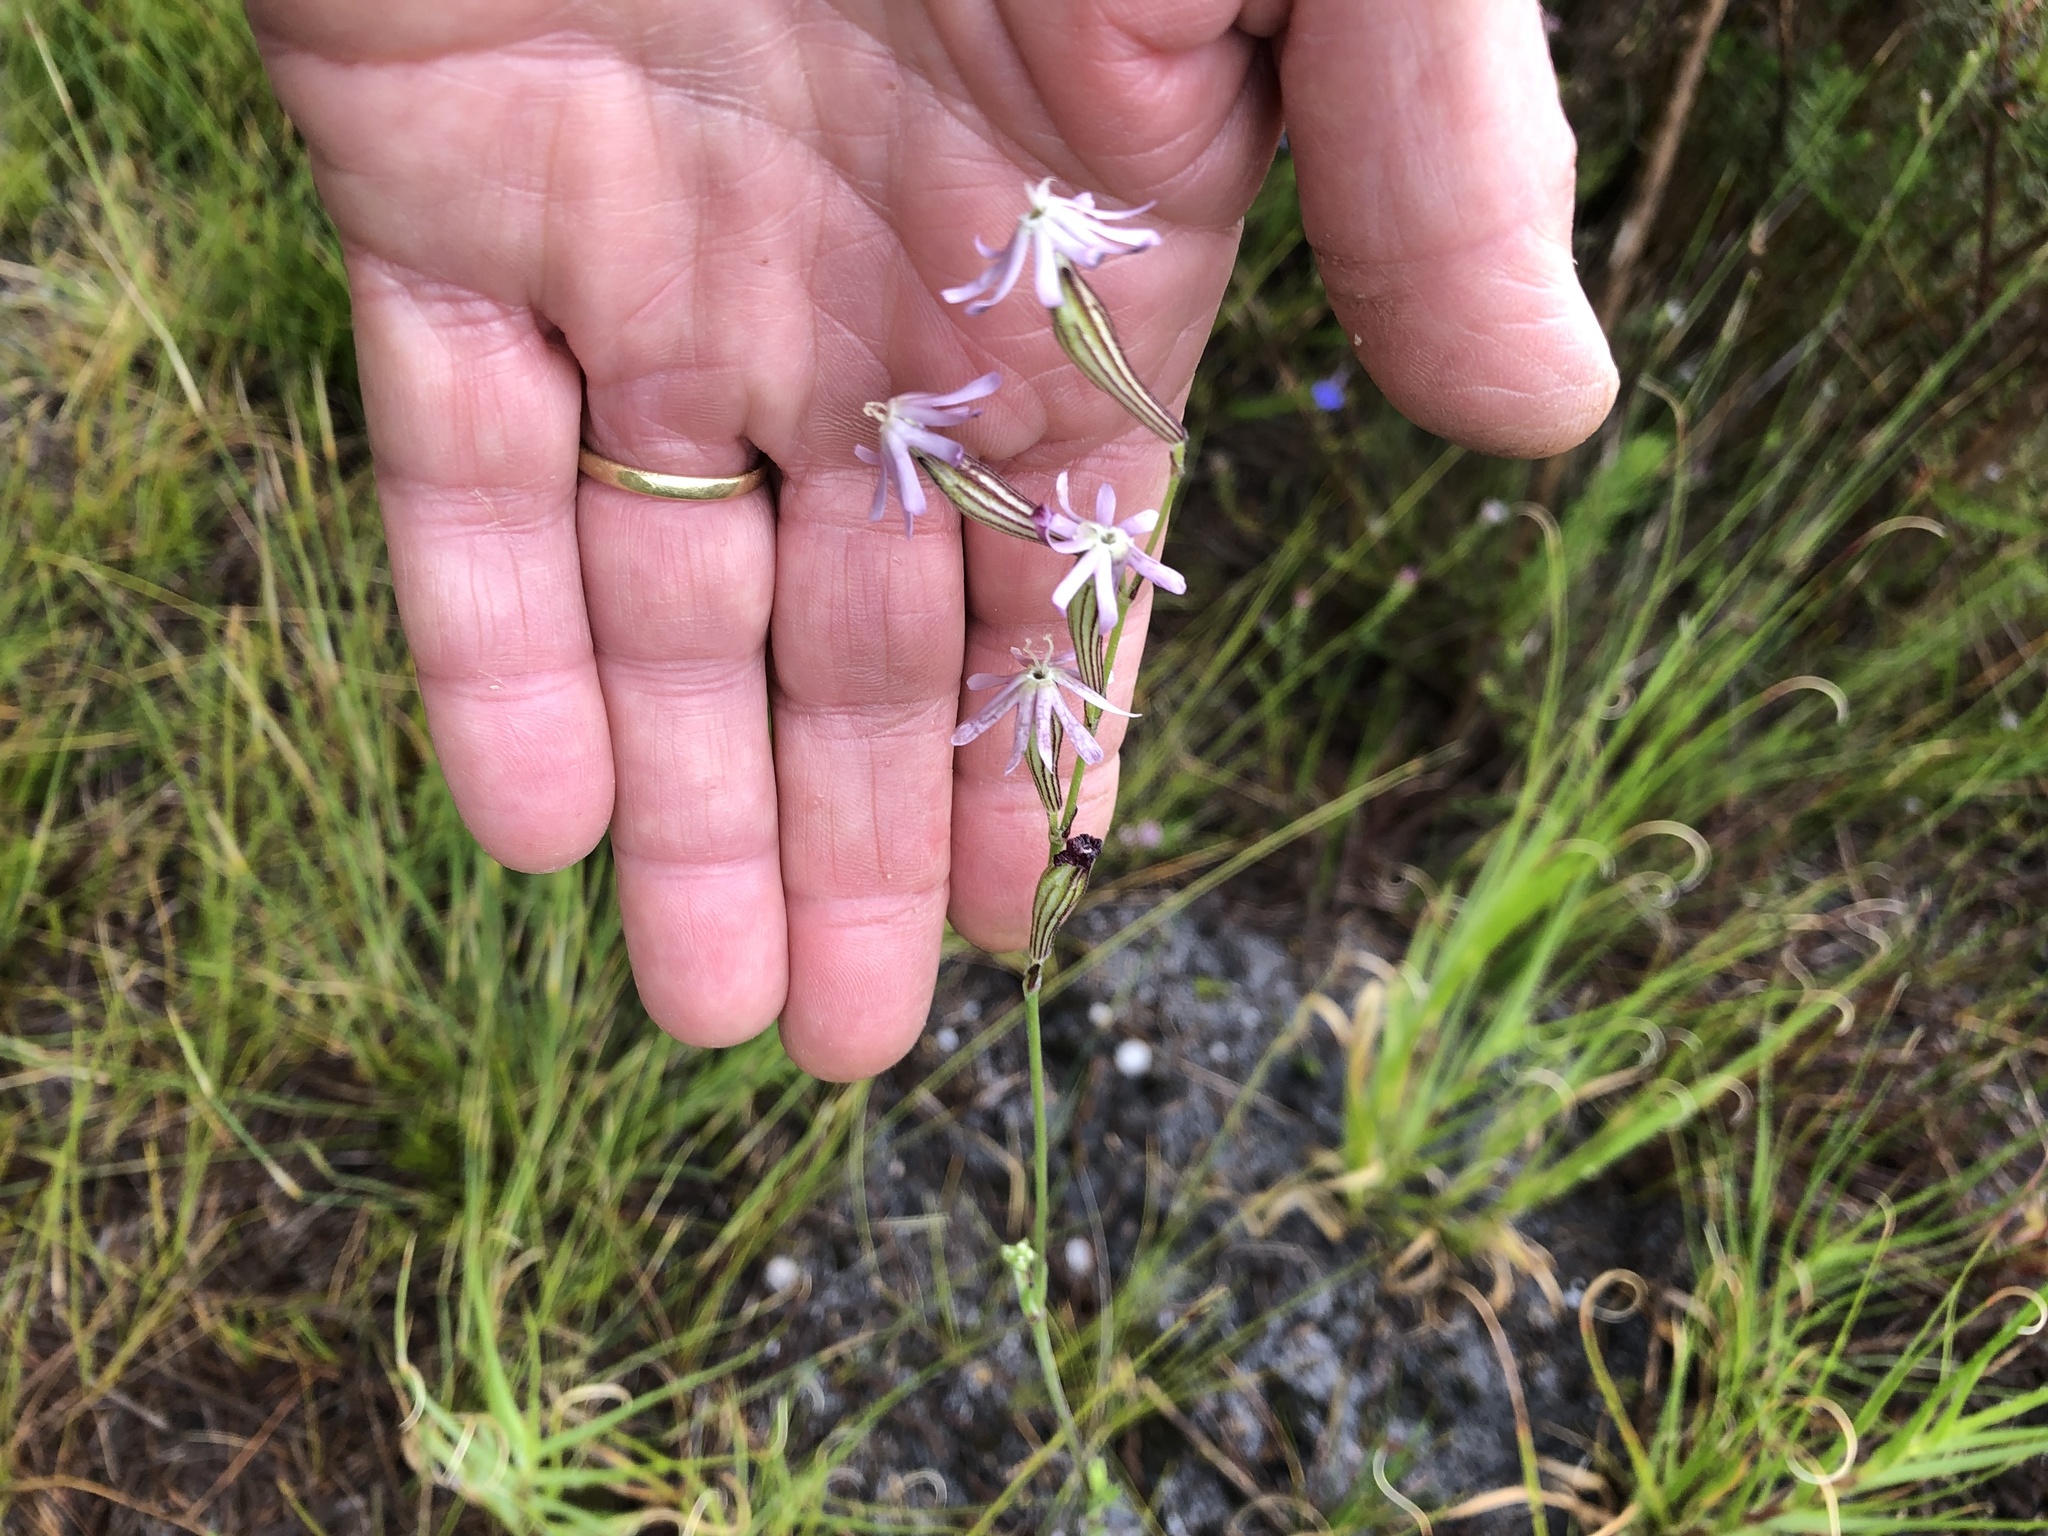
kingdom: Plantae
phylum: Tracheophyta
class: Magnoliopsida
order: Caryophyllales
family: Caryophyllaceae
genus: Silene
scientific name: Silene burchellii
